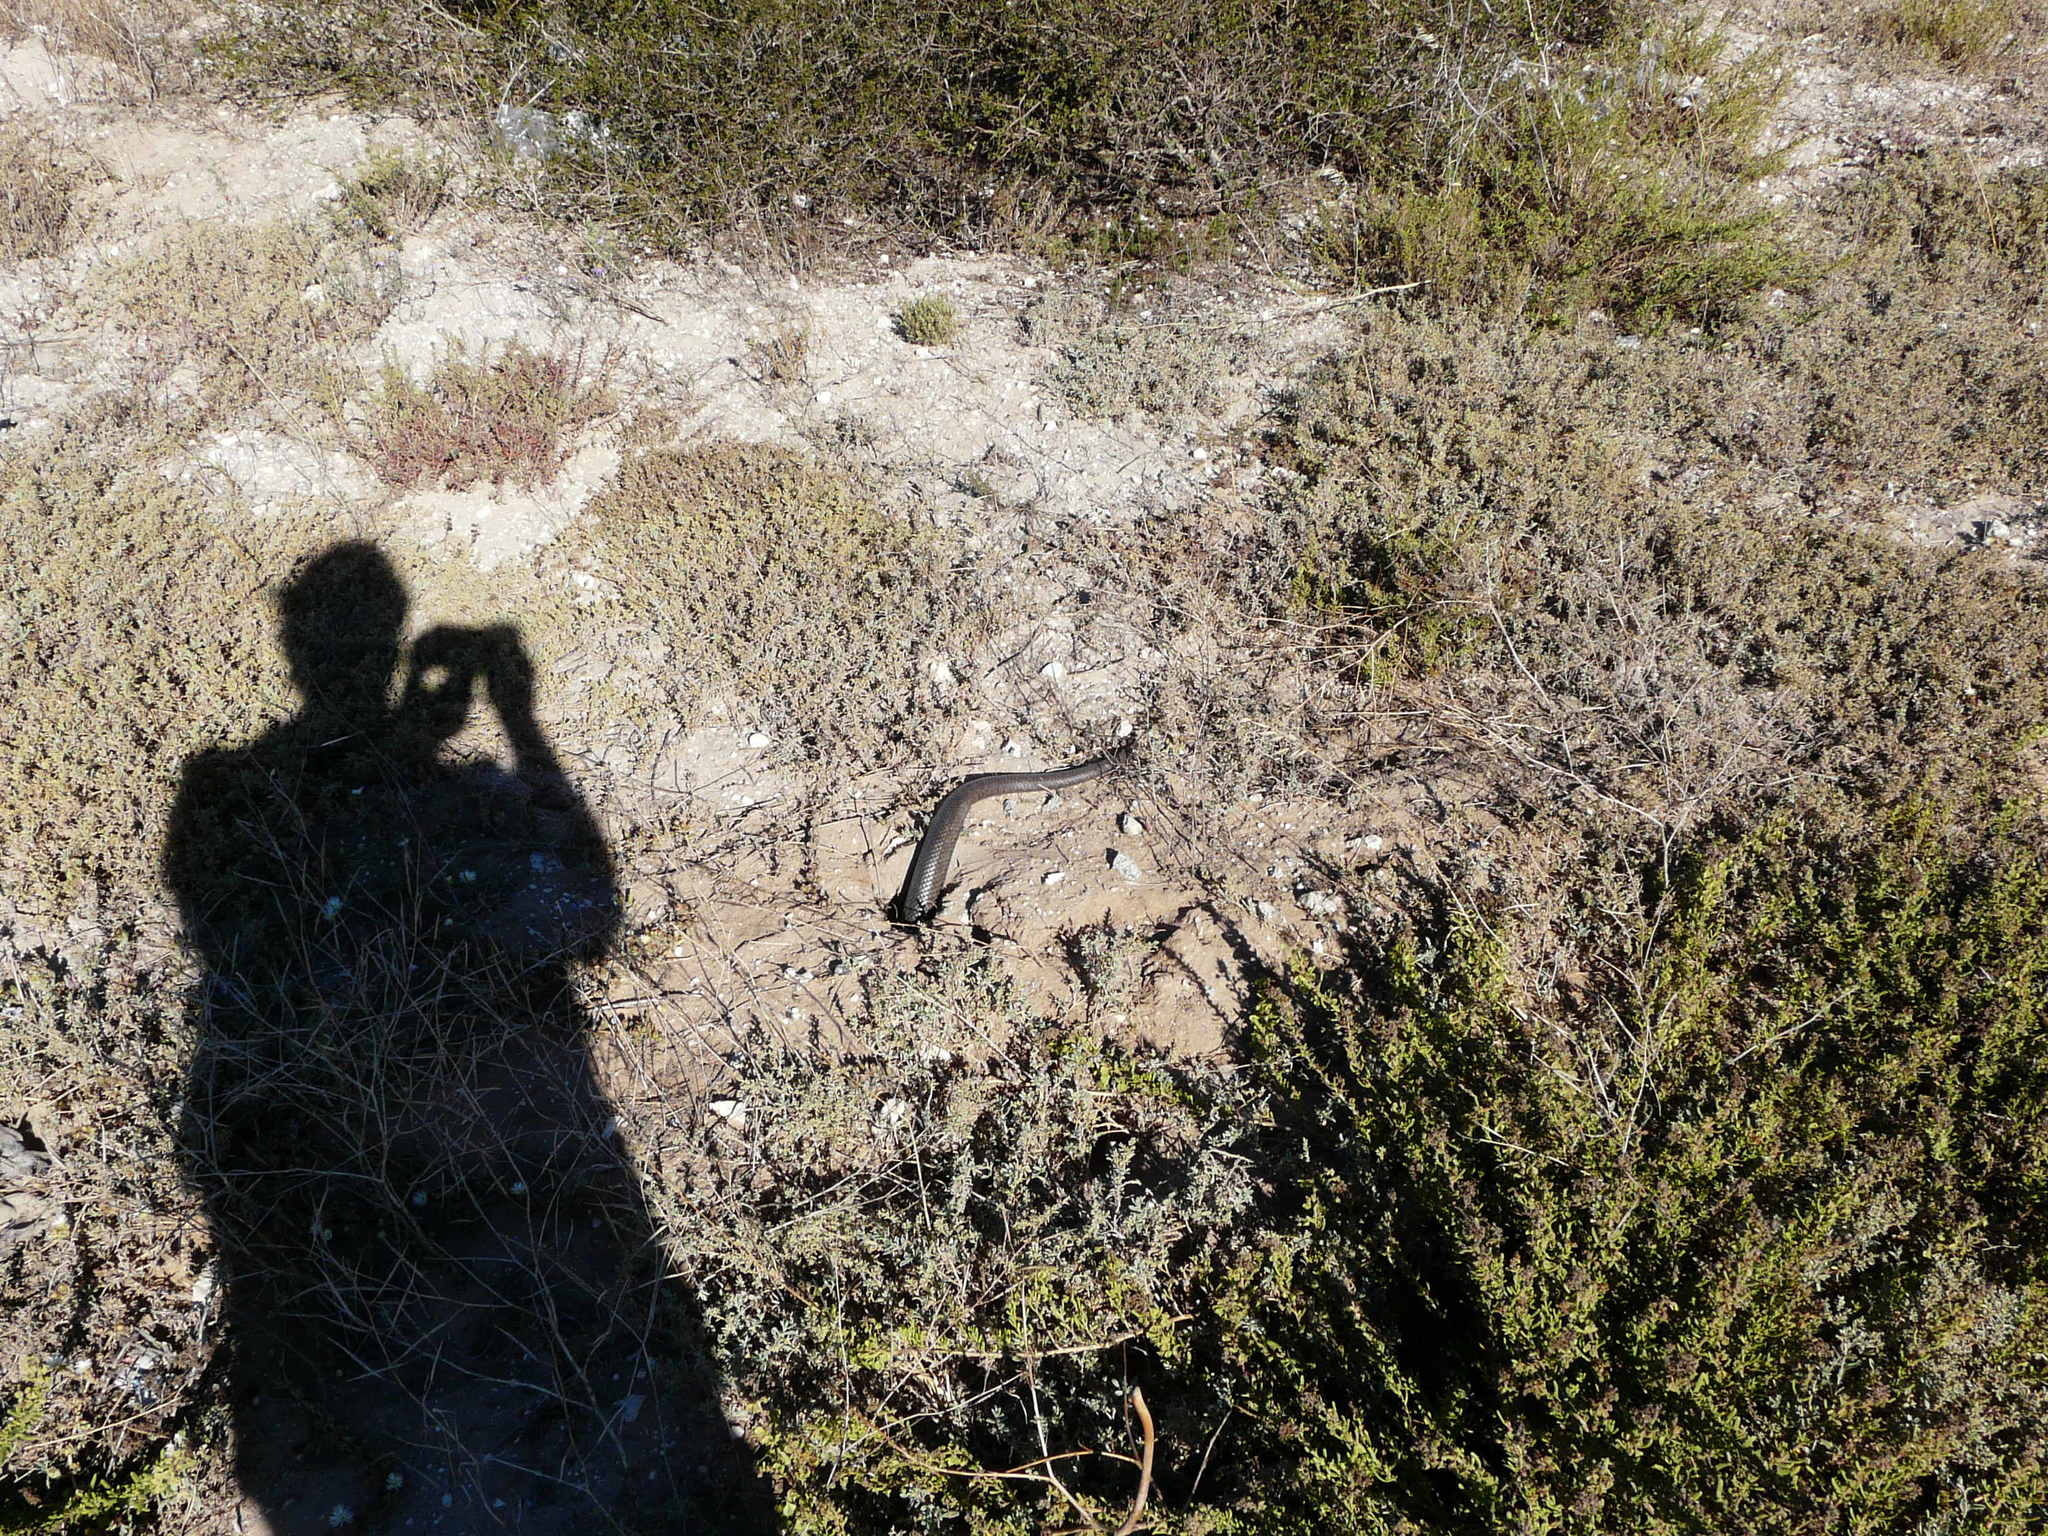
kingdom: Animalia
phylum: Chordata
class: Squamata
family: Pseudaspididae
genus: Pseudaspis
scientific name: Pseudaspis cana
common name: Mole snake
